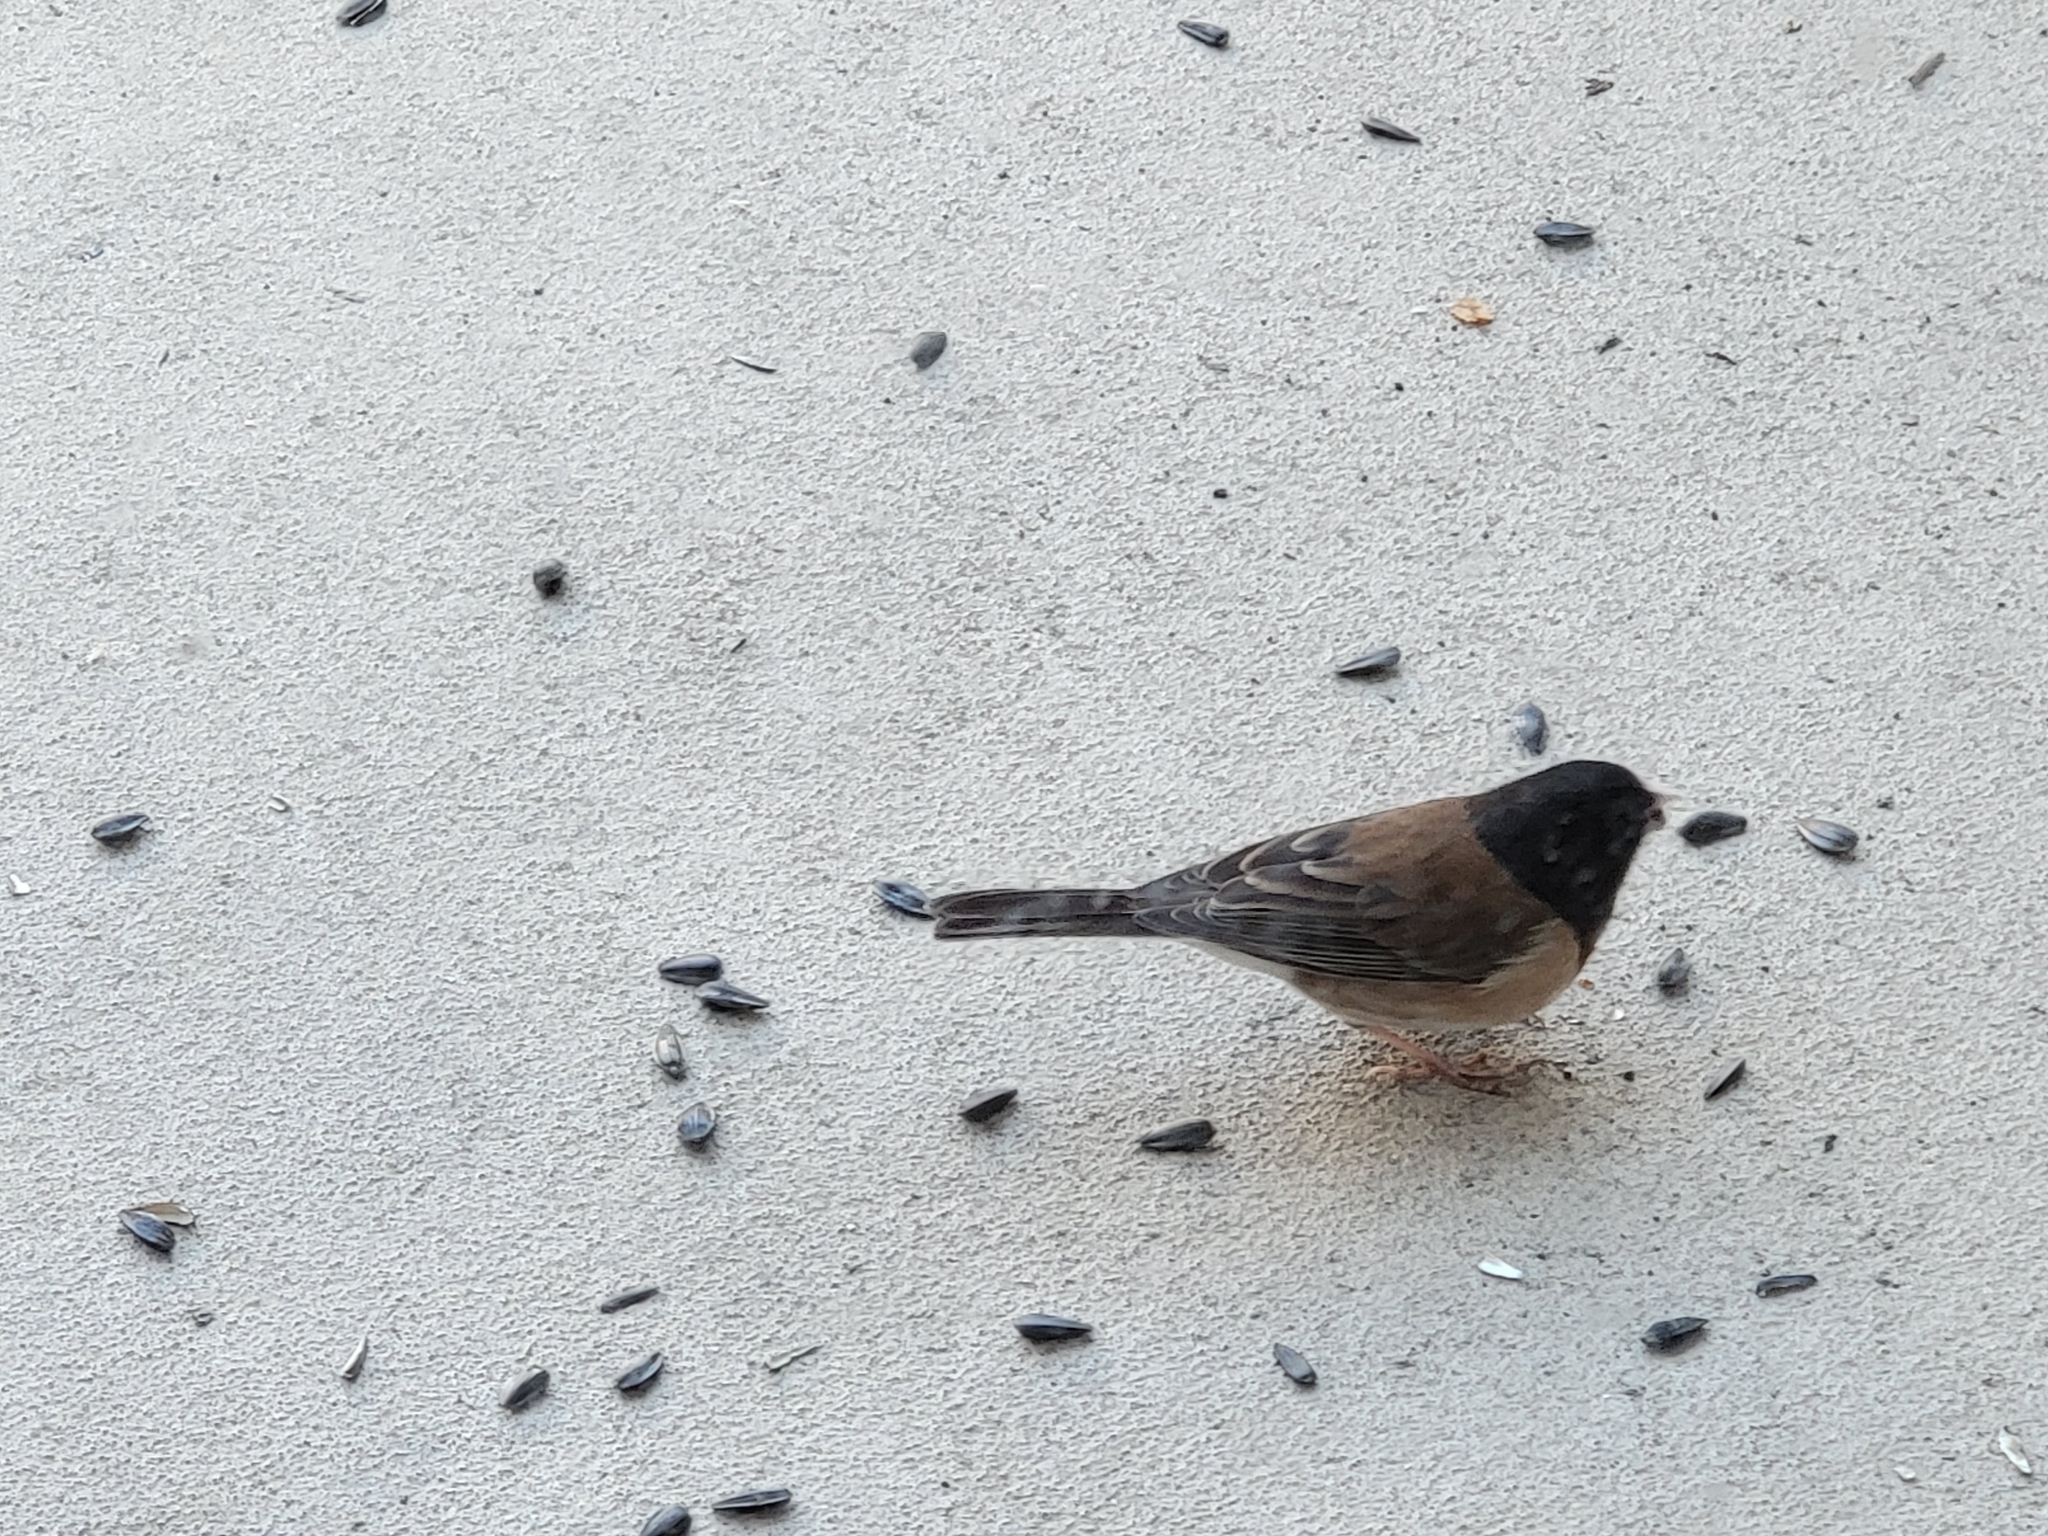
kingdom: Animalia
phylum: Chordata
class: Aves
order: Passeriformes
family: Passerellidae
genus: Junco
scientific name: Junco hyemalis
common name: Dark-eyed junco
